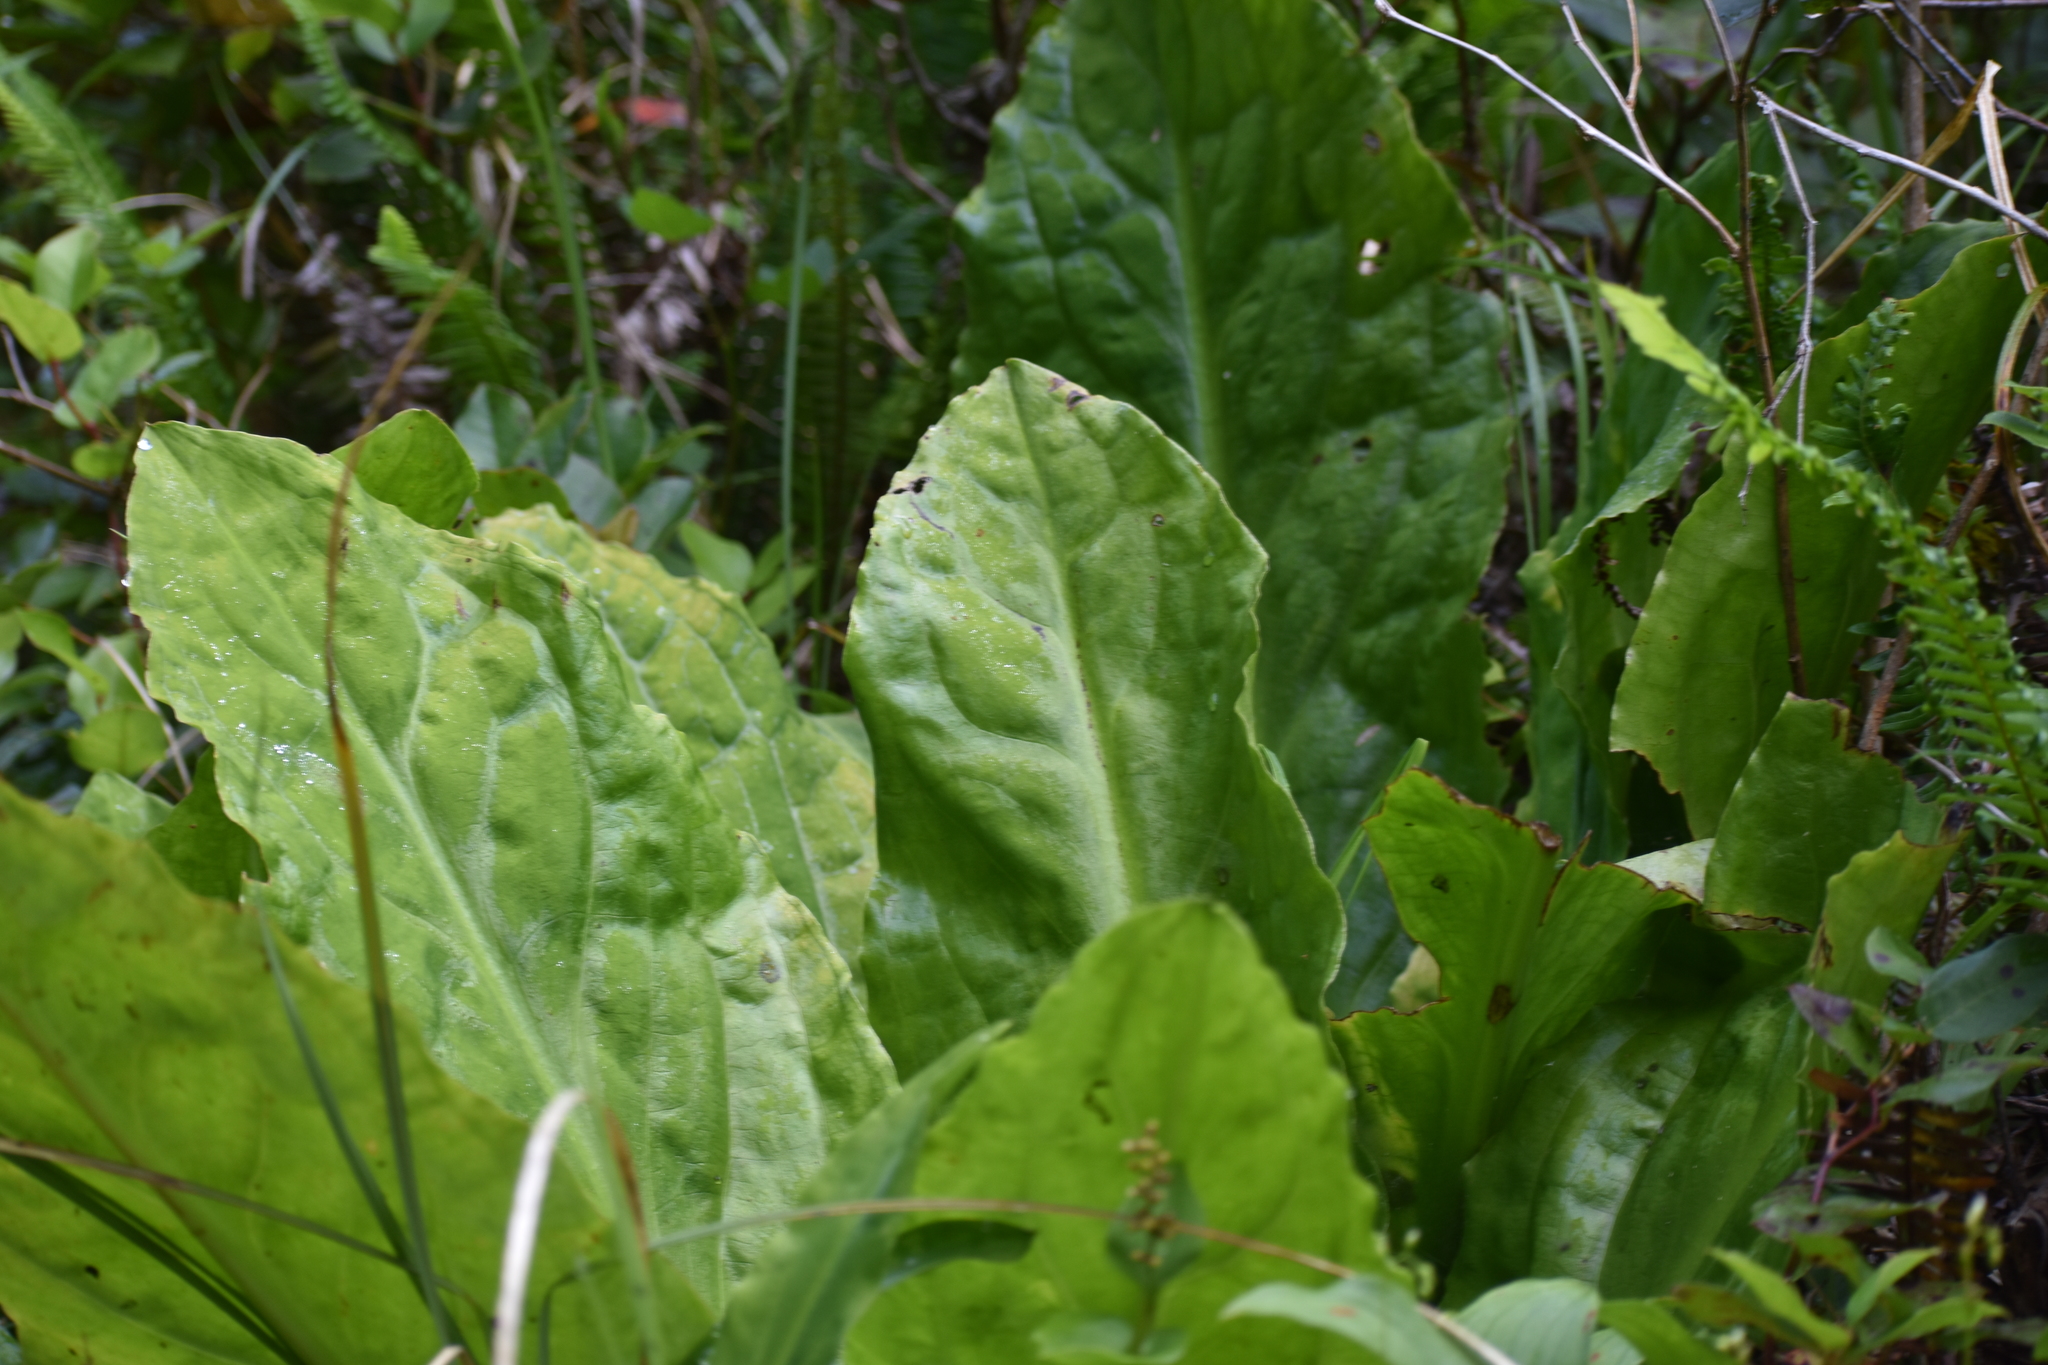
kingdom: Plantae
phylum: Tracheophyta
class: Liliopsida
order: Alismatales
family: Araceae
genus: Lysichiton
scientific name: Lysichiton americanus
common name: American skunk cabbage
